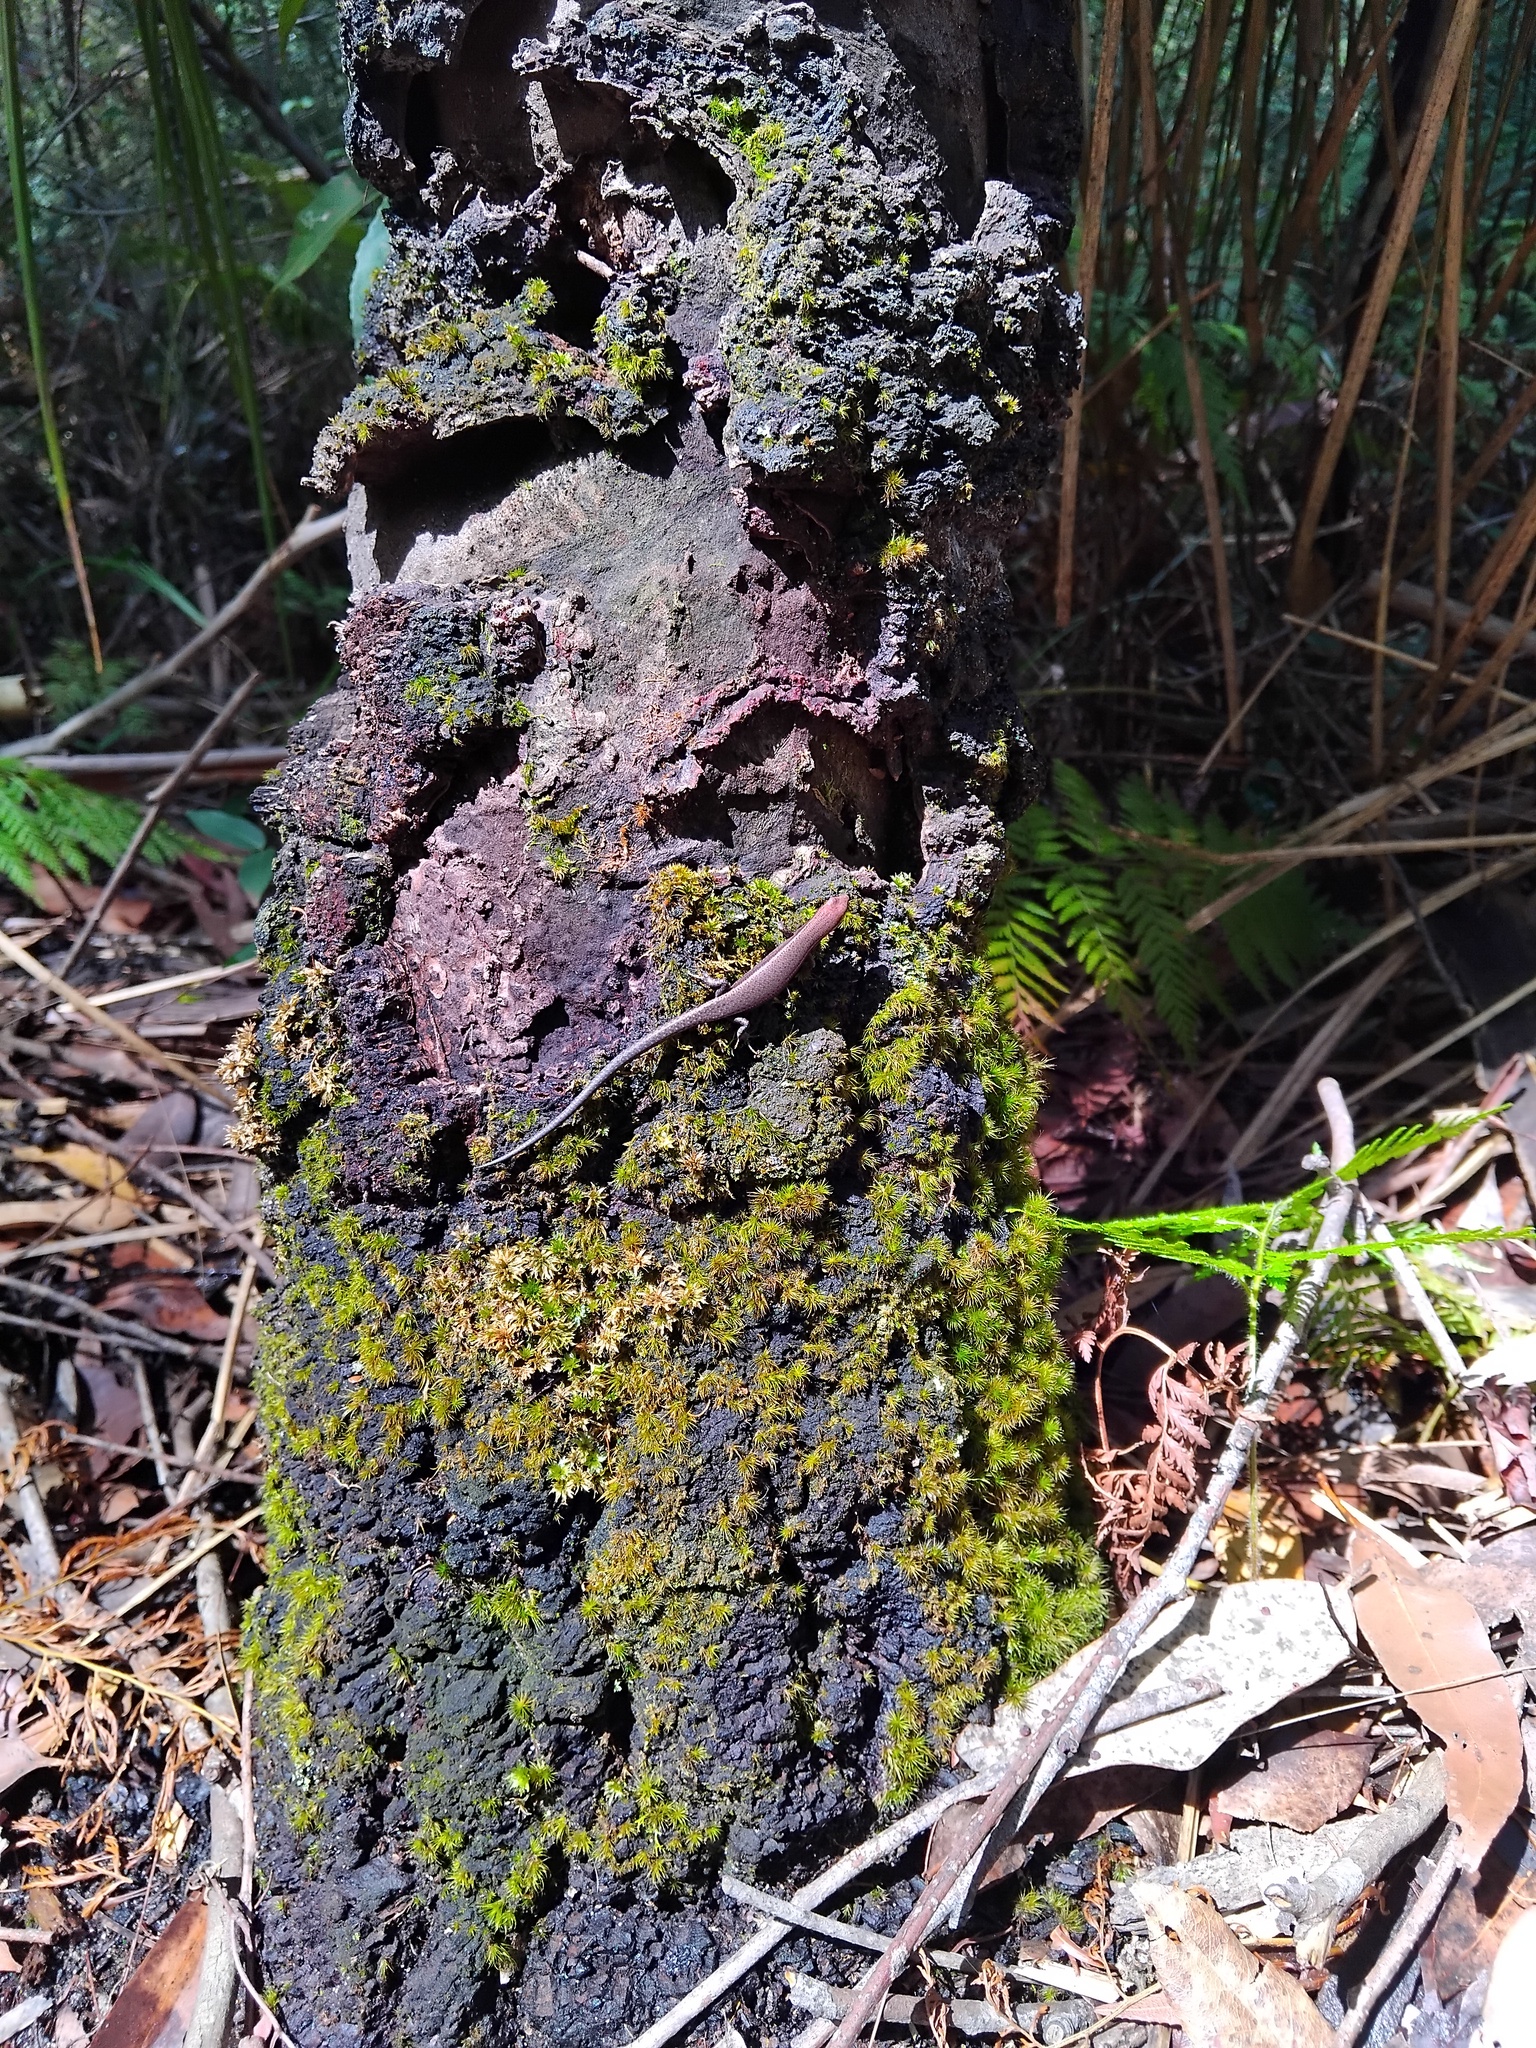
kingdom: Animalia
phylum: Chordata
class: Squamata
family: Scincidae
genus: Lampropholis
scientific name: Lampropholis delicata
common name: Plague skink
